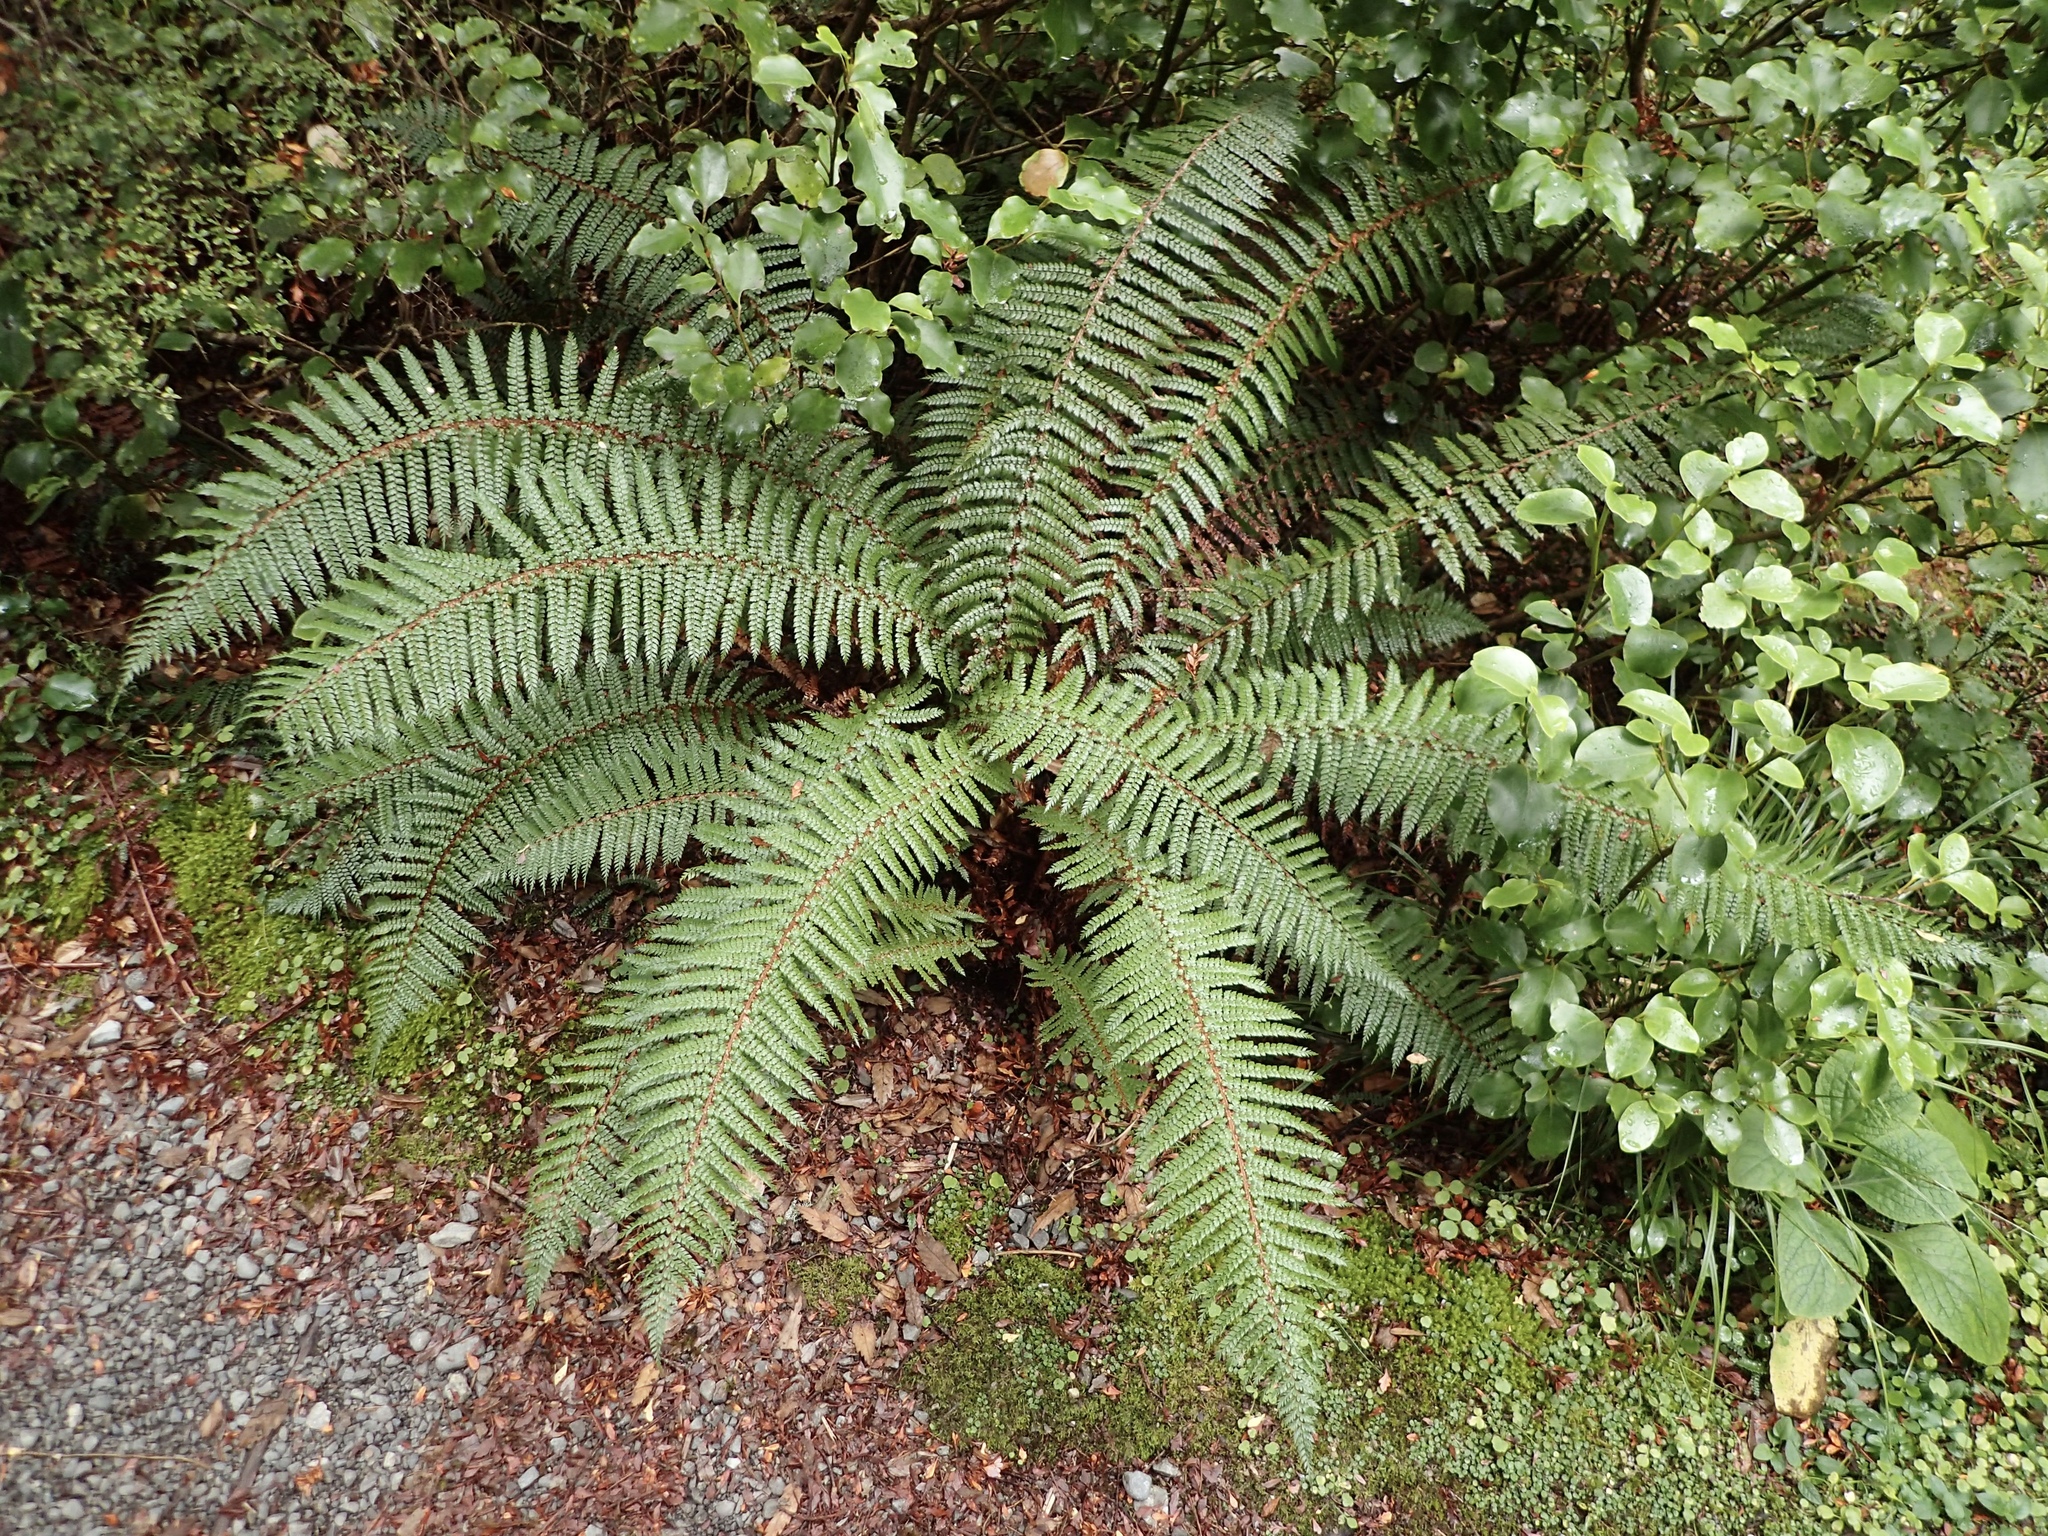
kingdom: Plantae
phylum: Tracheophyta
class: Polypodiopsida
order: Polypodiales
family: Dryopteridaceae
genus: Polystichum
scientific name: Polystichum vestitum
